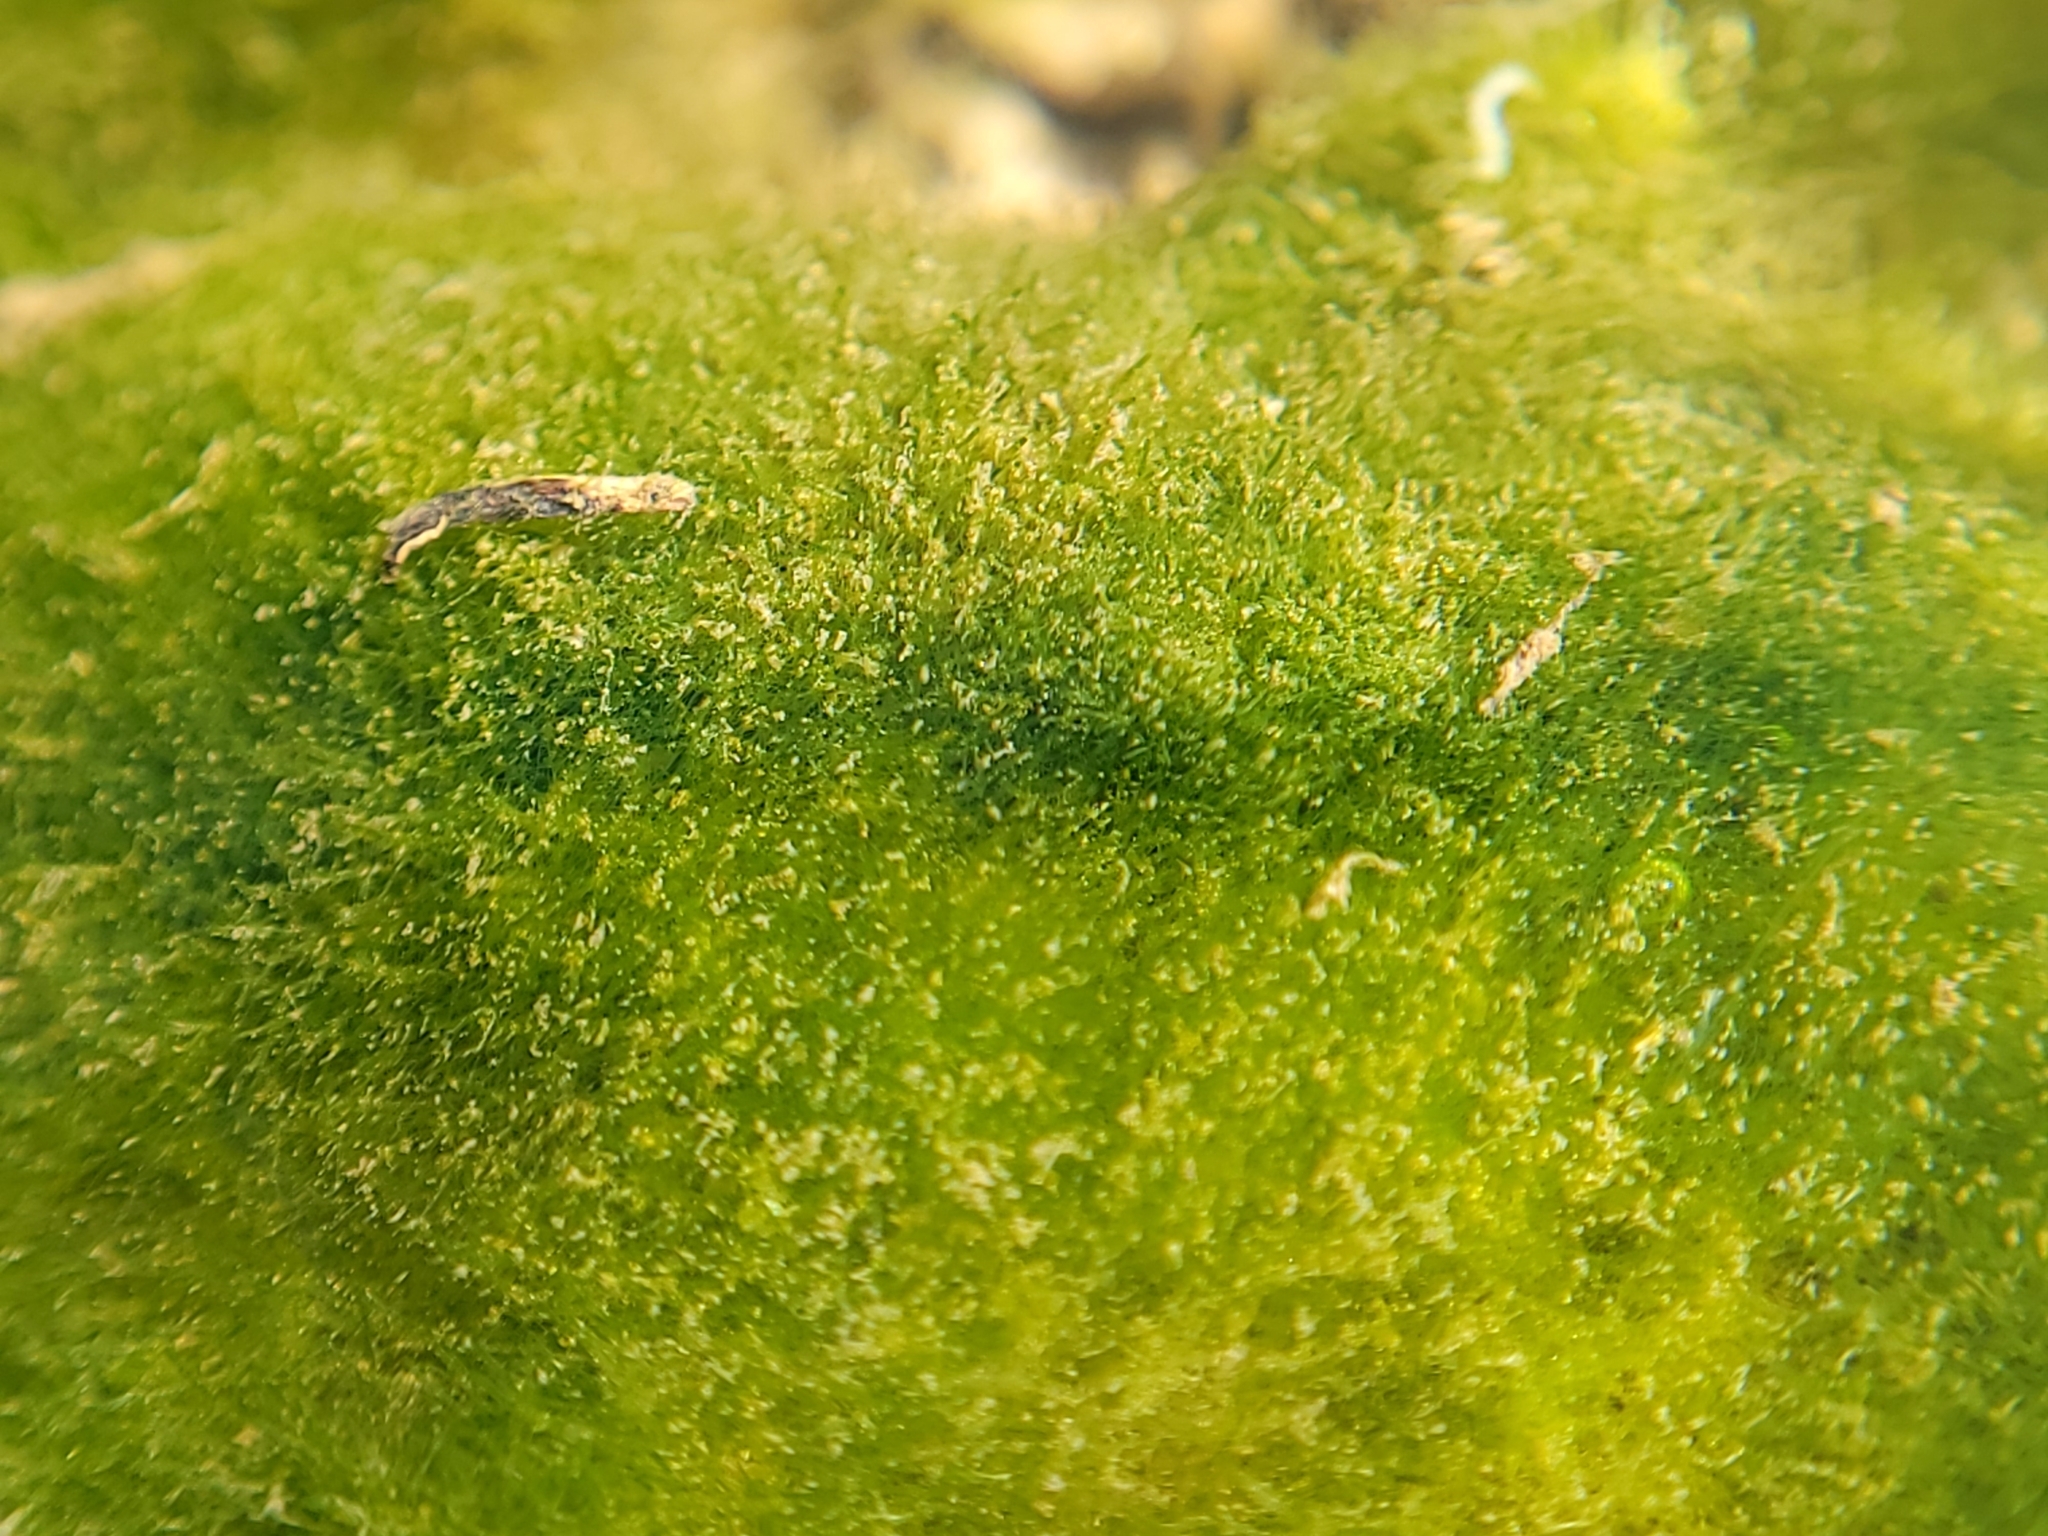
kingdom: Chromista
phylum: Ochrophyta
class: Xanthophyceae
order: Vaucheriales
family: Vaucheriaceae
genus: Vaucheria
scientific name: Vaucheria
